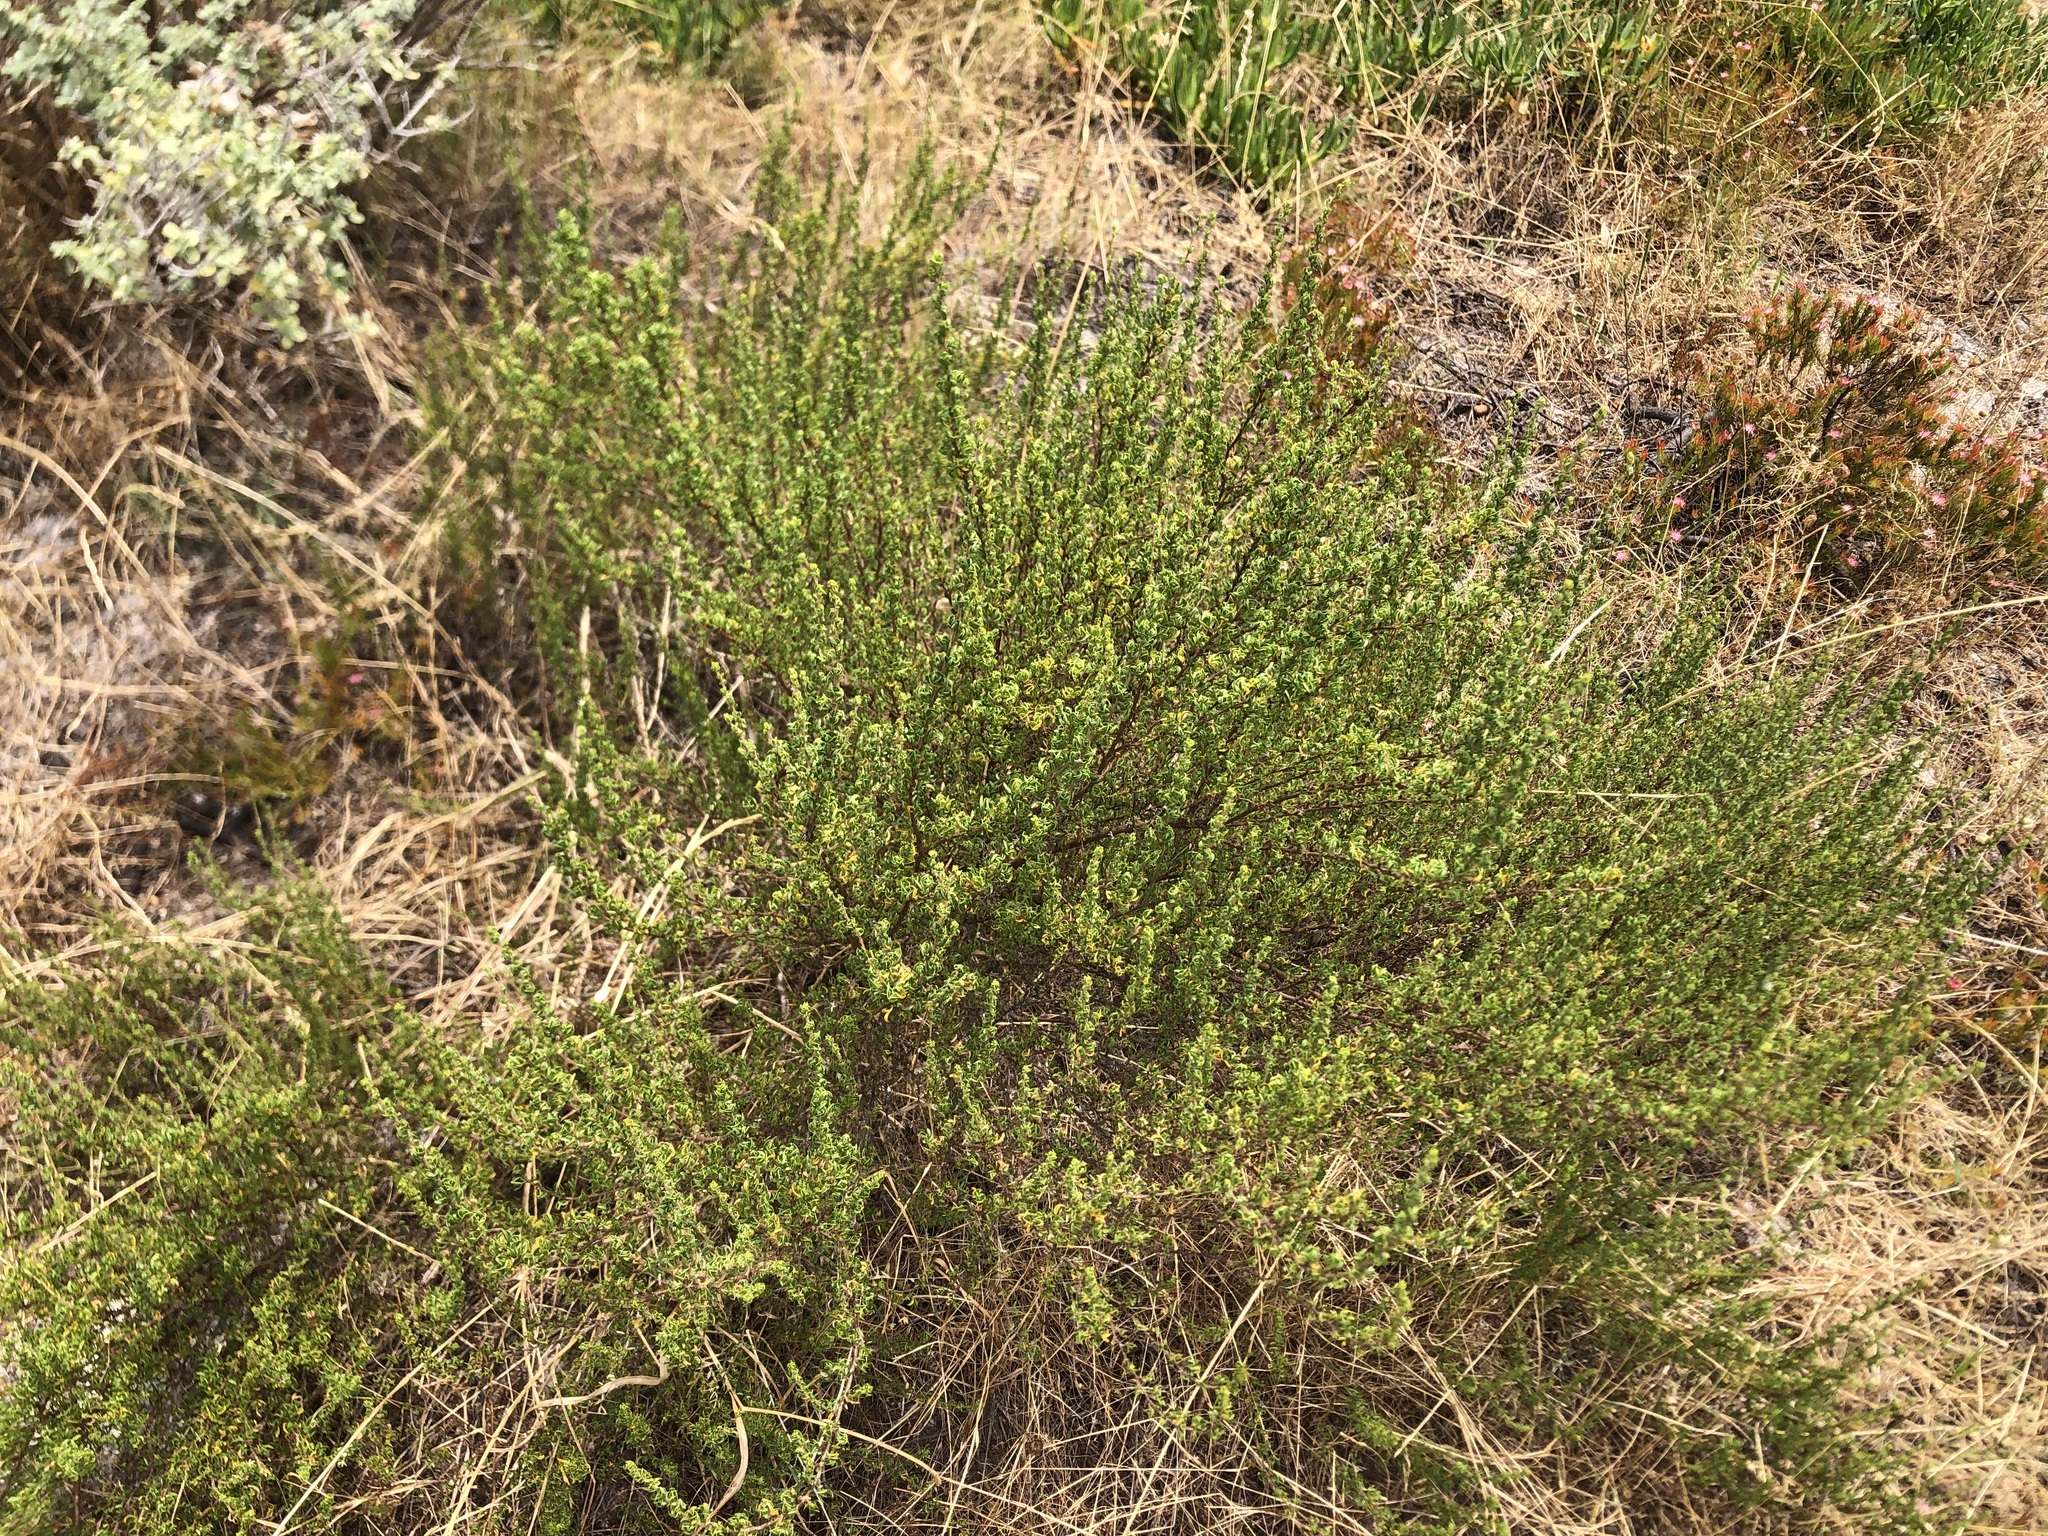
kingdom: Plantae
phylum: Tracheophyta
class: Magnoliopsida
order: Rosales
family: Rosaceae
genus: Cliffortia
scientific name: Cliffortia falcata
